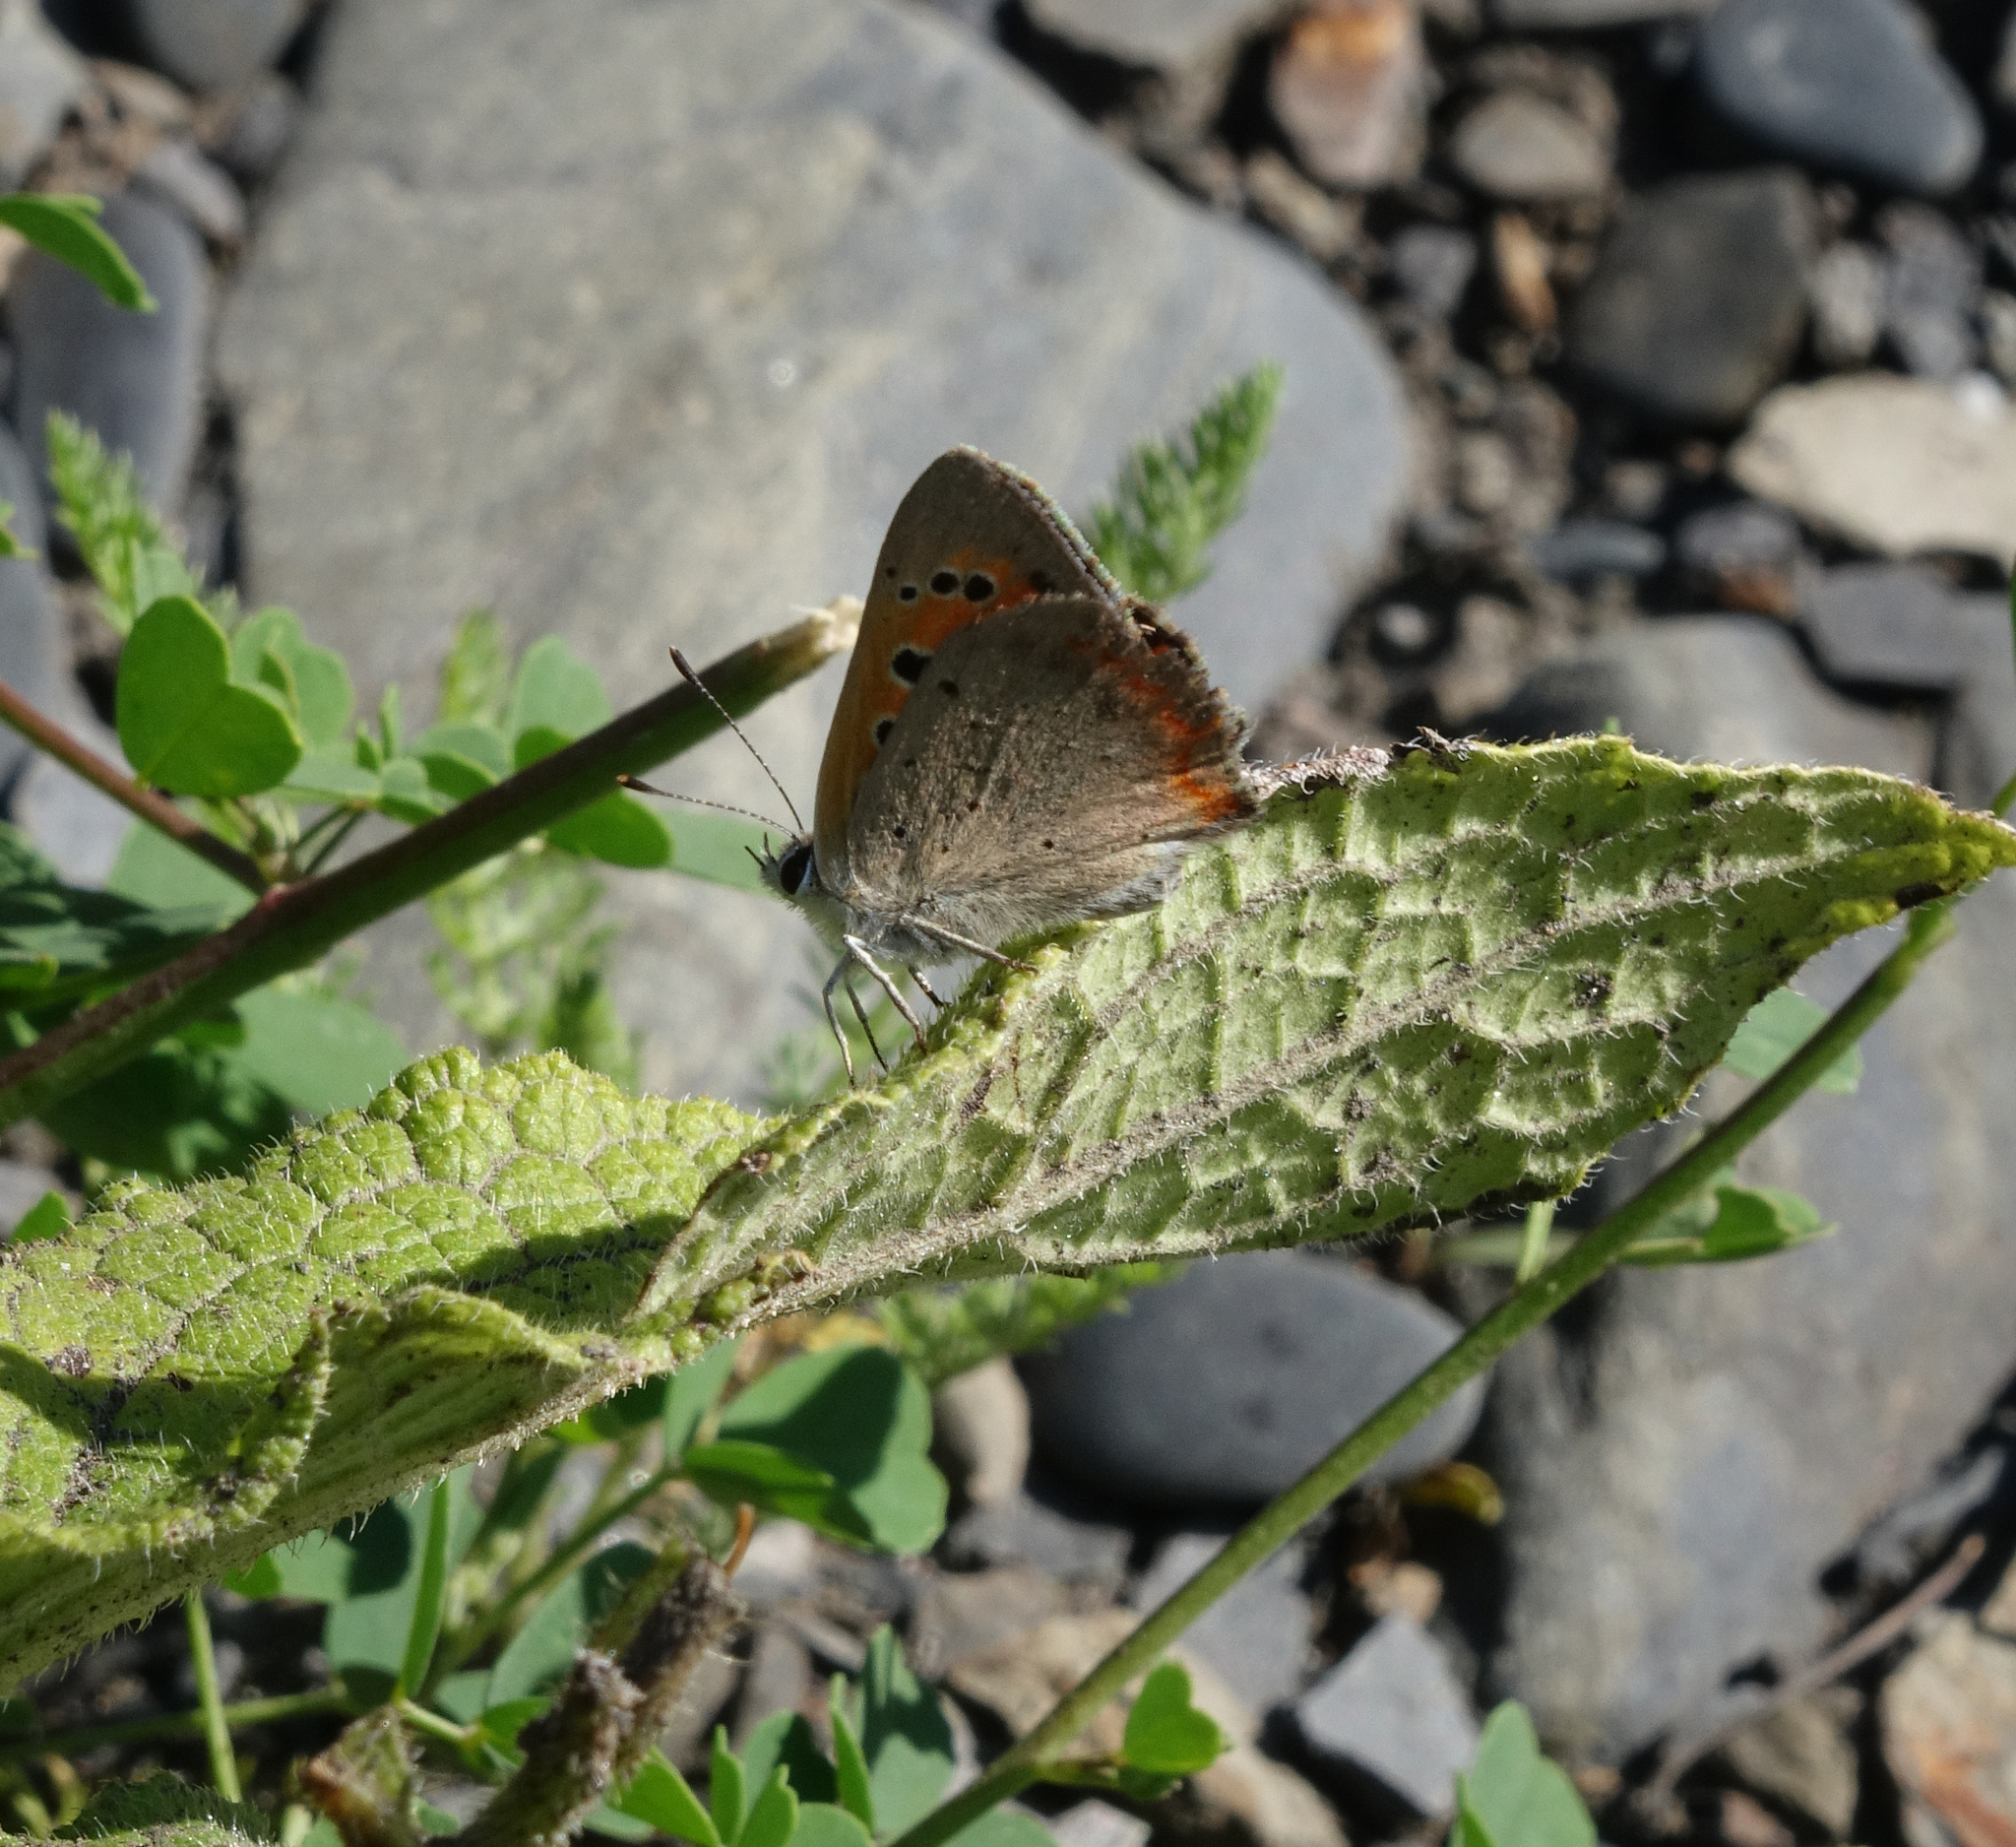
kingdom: Animalia
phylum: Arthropoda
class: Insecta
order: Lepidoptera
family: Lycaenidae
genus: Lycaena
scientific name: Lycaena phlaeas
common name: Small copper
